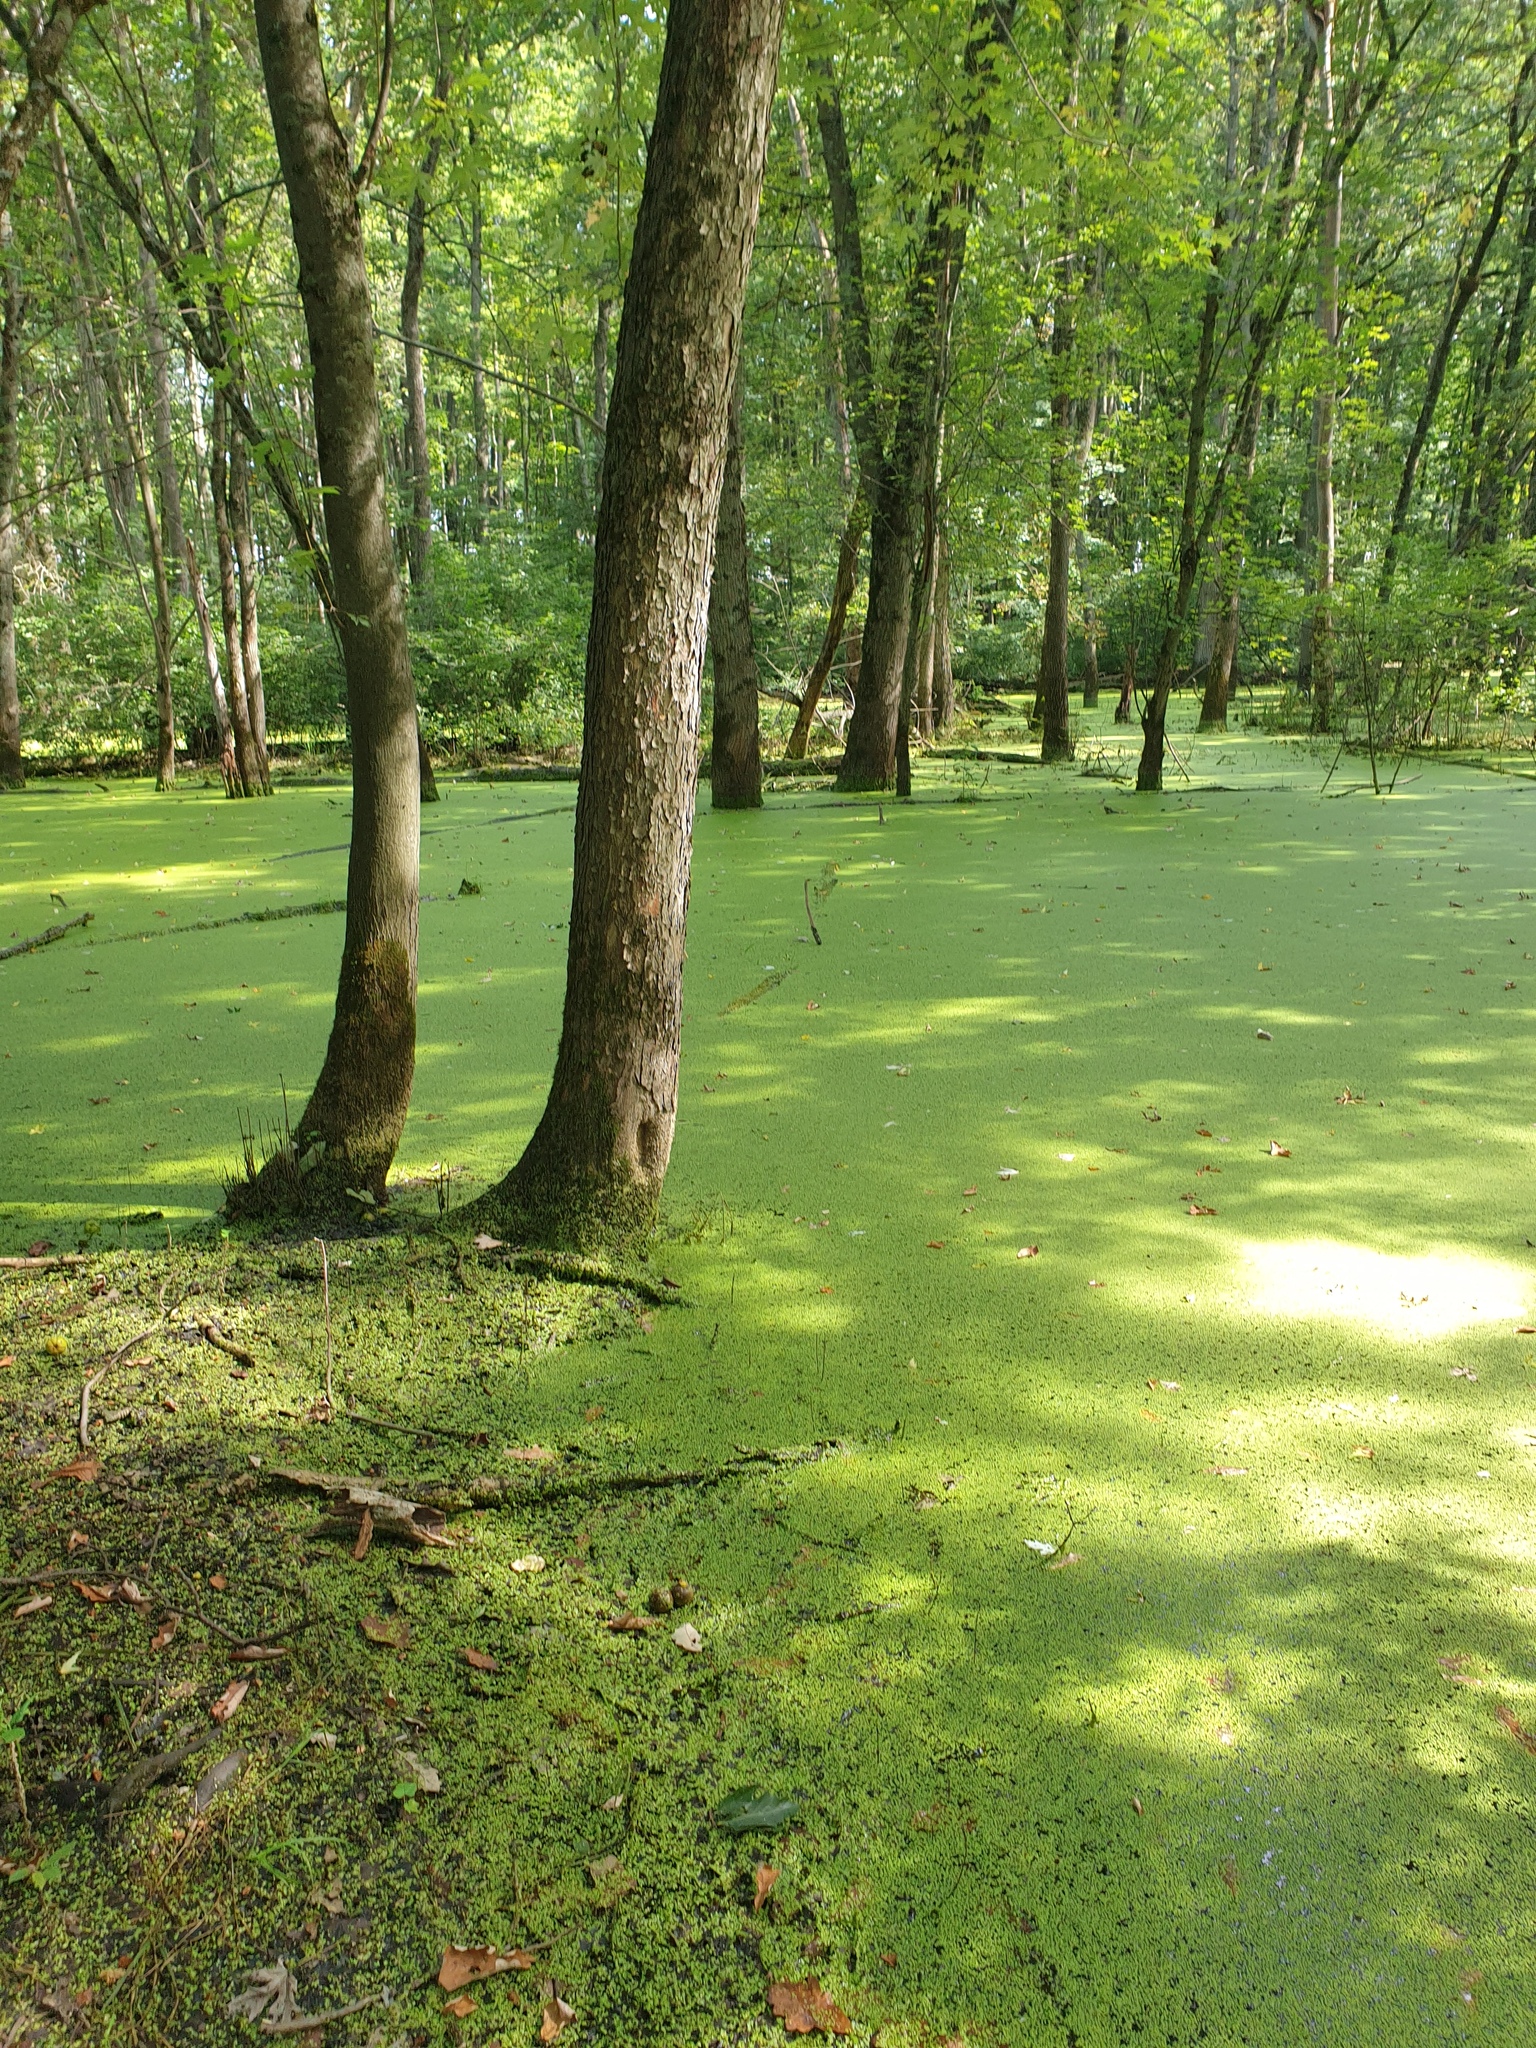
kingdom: Plantae
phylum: Tracheophyta
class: Magnoliopsida
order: Sapindales
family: Sapindaceae
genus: Acer
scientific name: Acer saccharinum
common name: Silver maple
